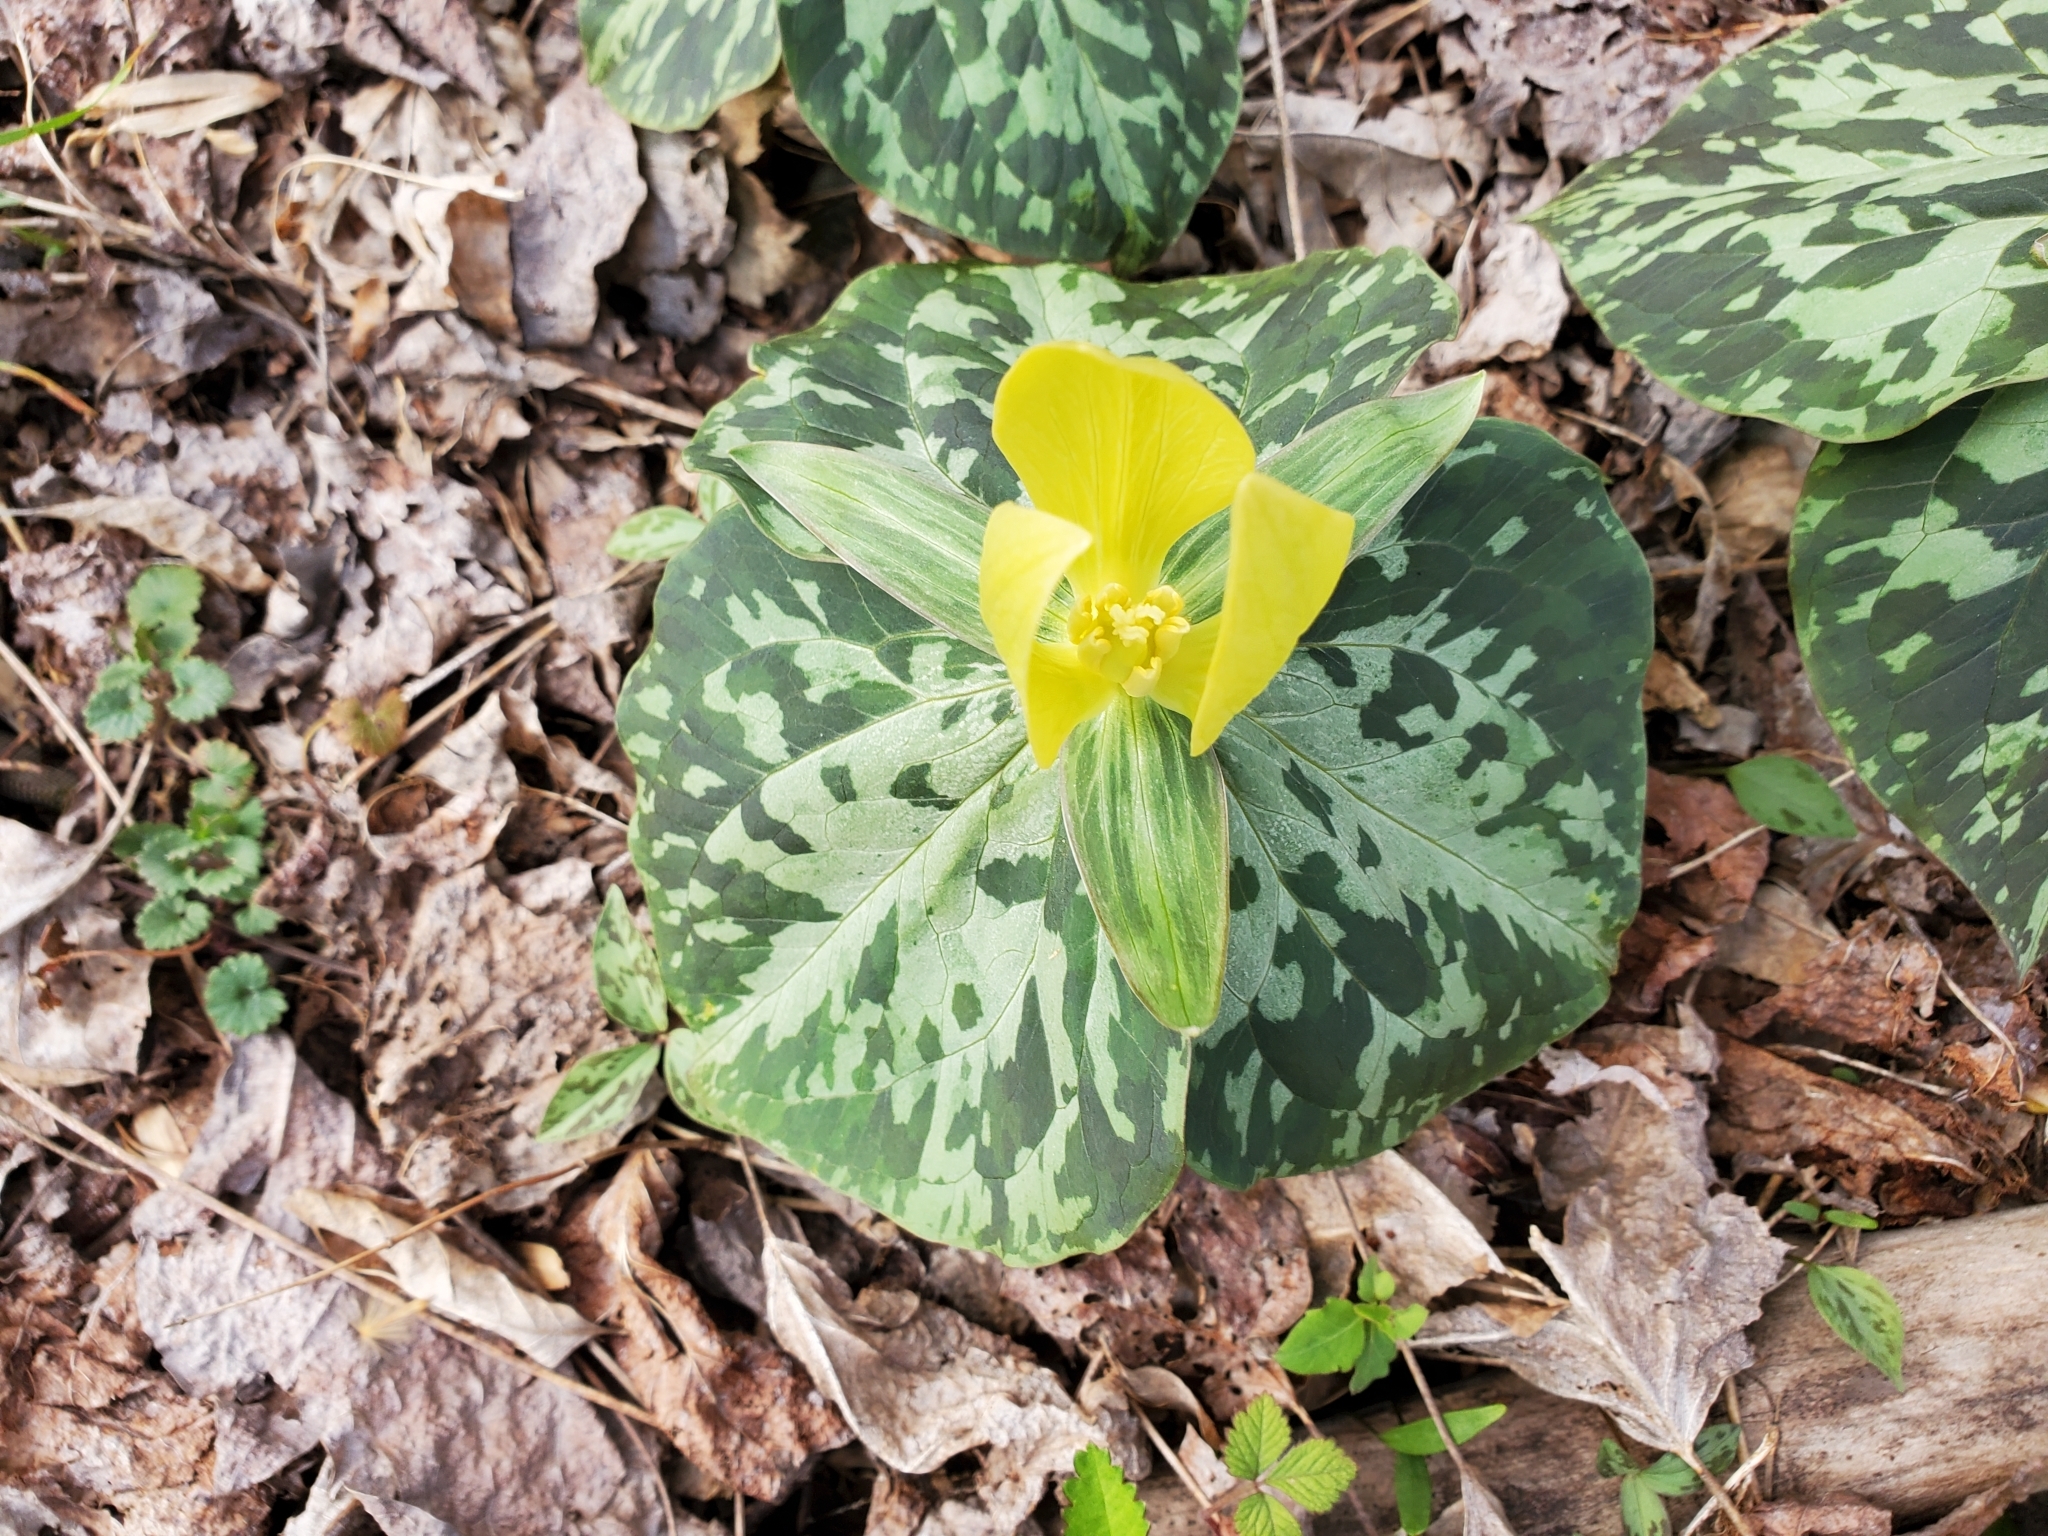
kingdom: Plantae
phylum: Tracheophyta
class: Liliopsida
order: Liliales
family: Melanthiaceae
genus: Trillium
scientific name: Trillium luteum
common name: Wax trillium
